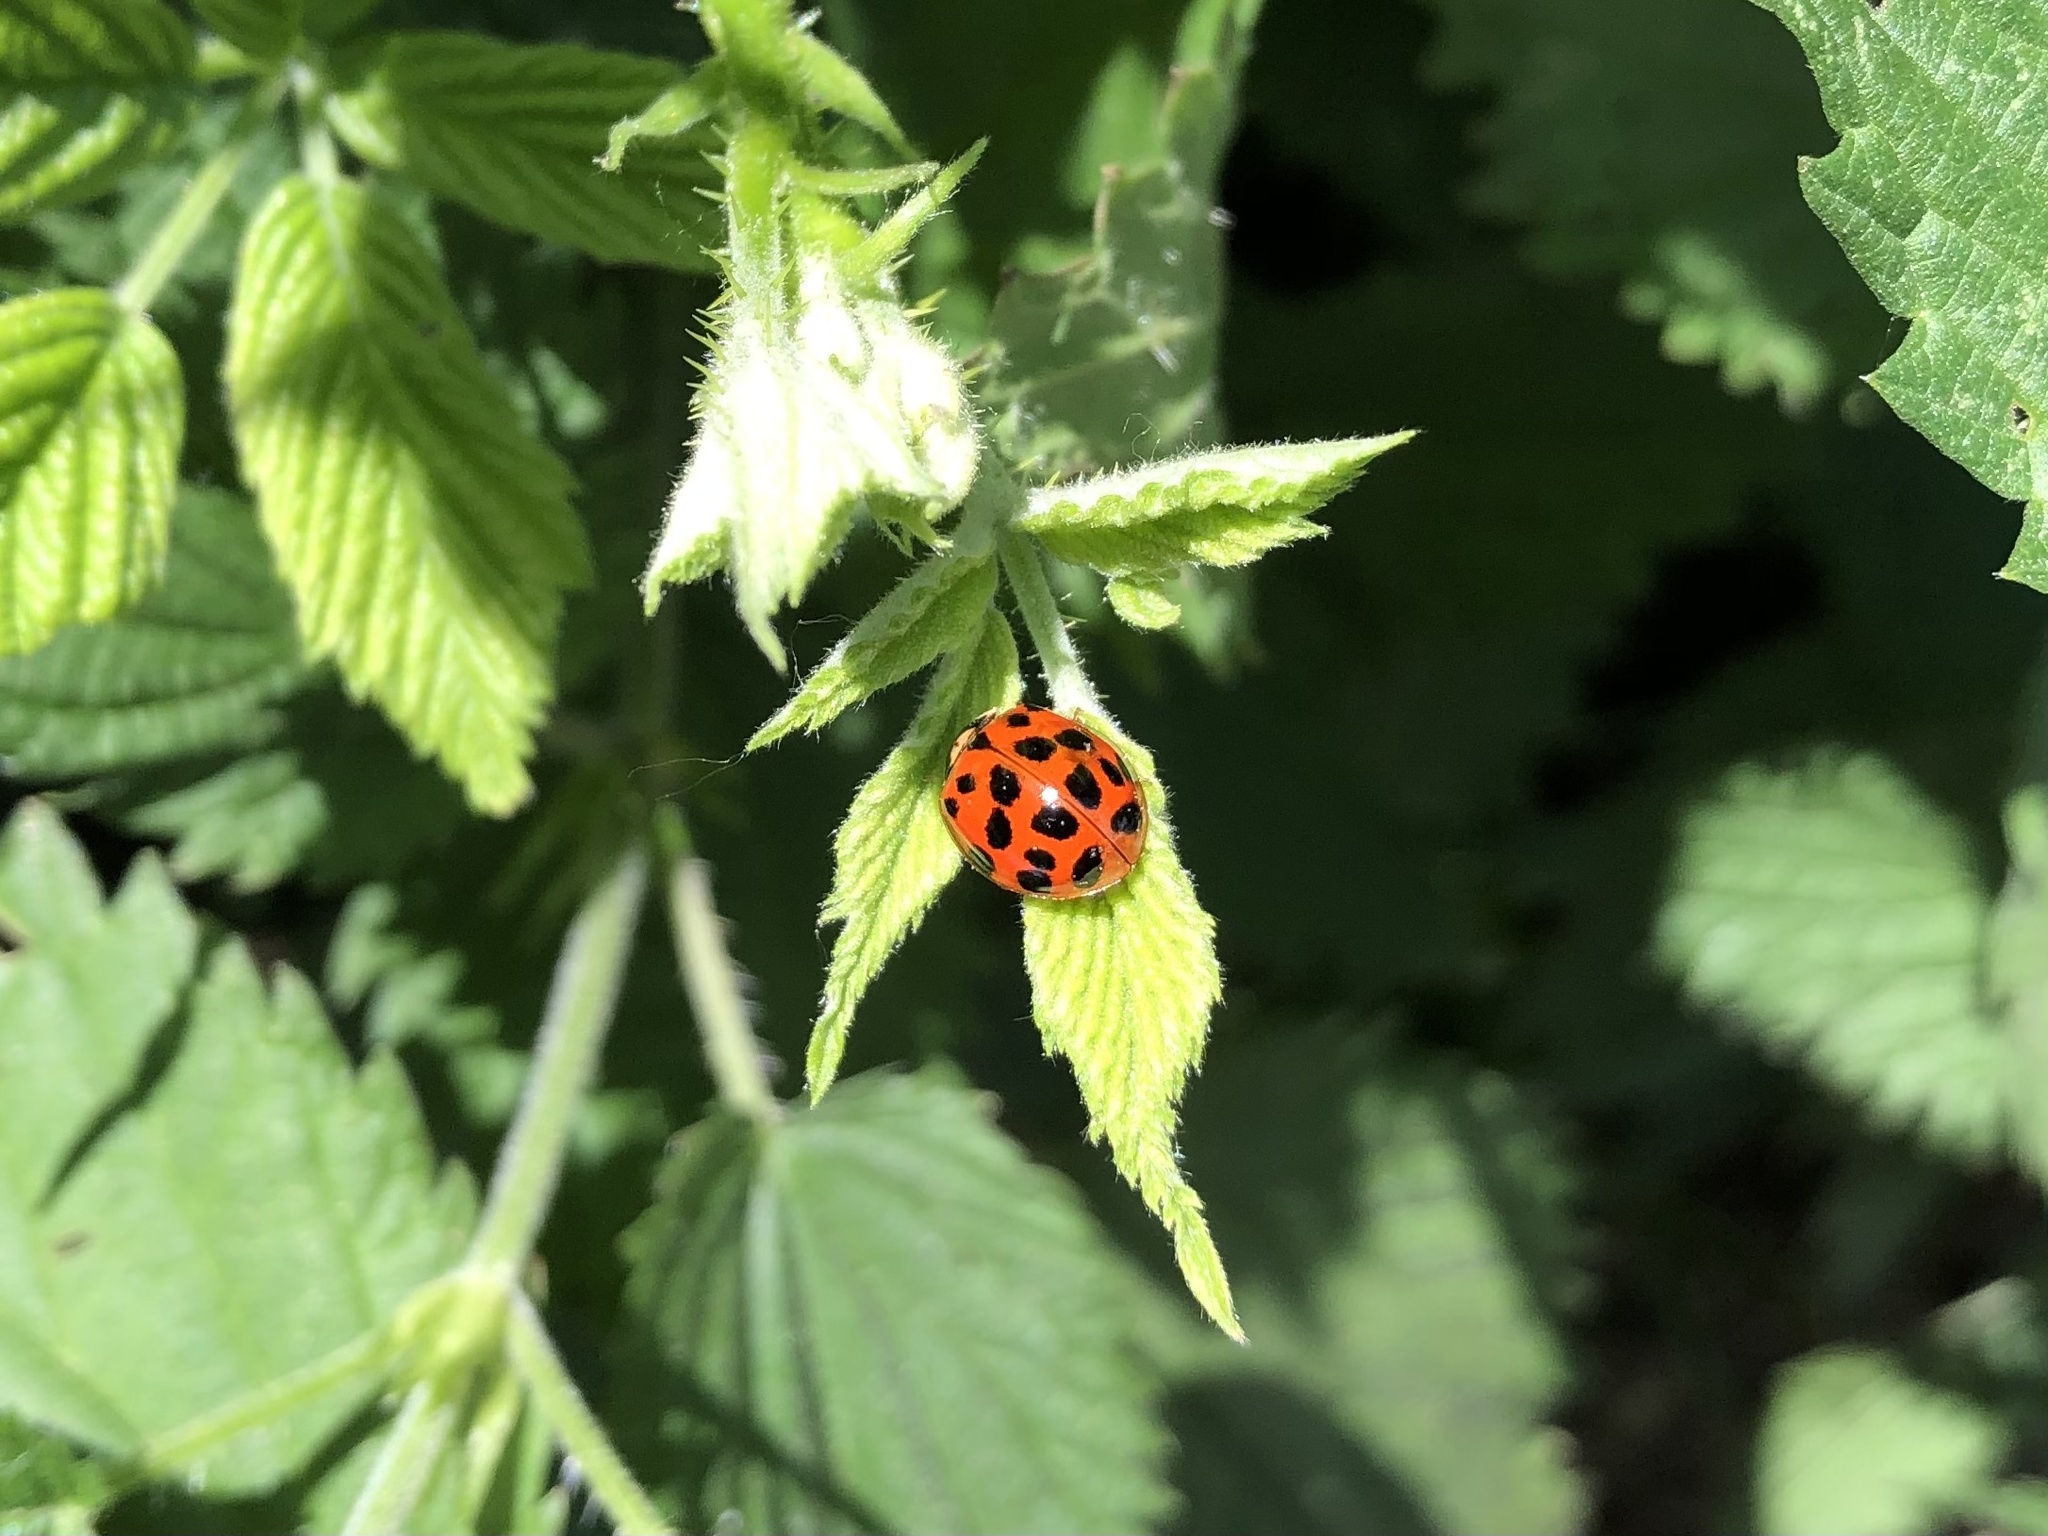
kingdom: Animalia
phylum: Arthropoda
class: Insecta
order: Coleoptera
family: Coccinellidae
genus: Harmonia
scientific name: Harmonia axyridis
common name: Harlequin ladybird
